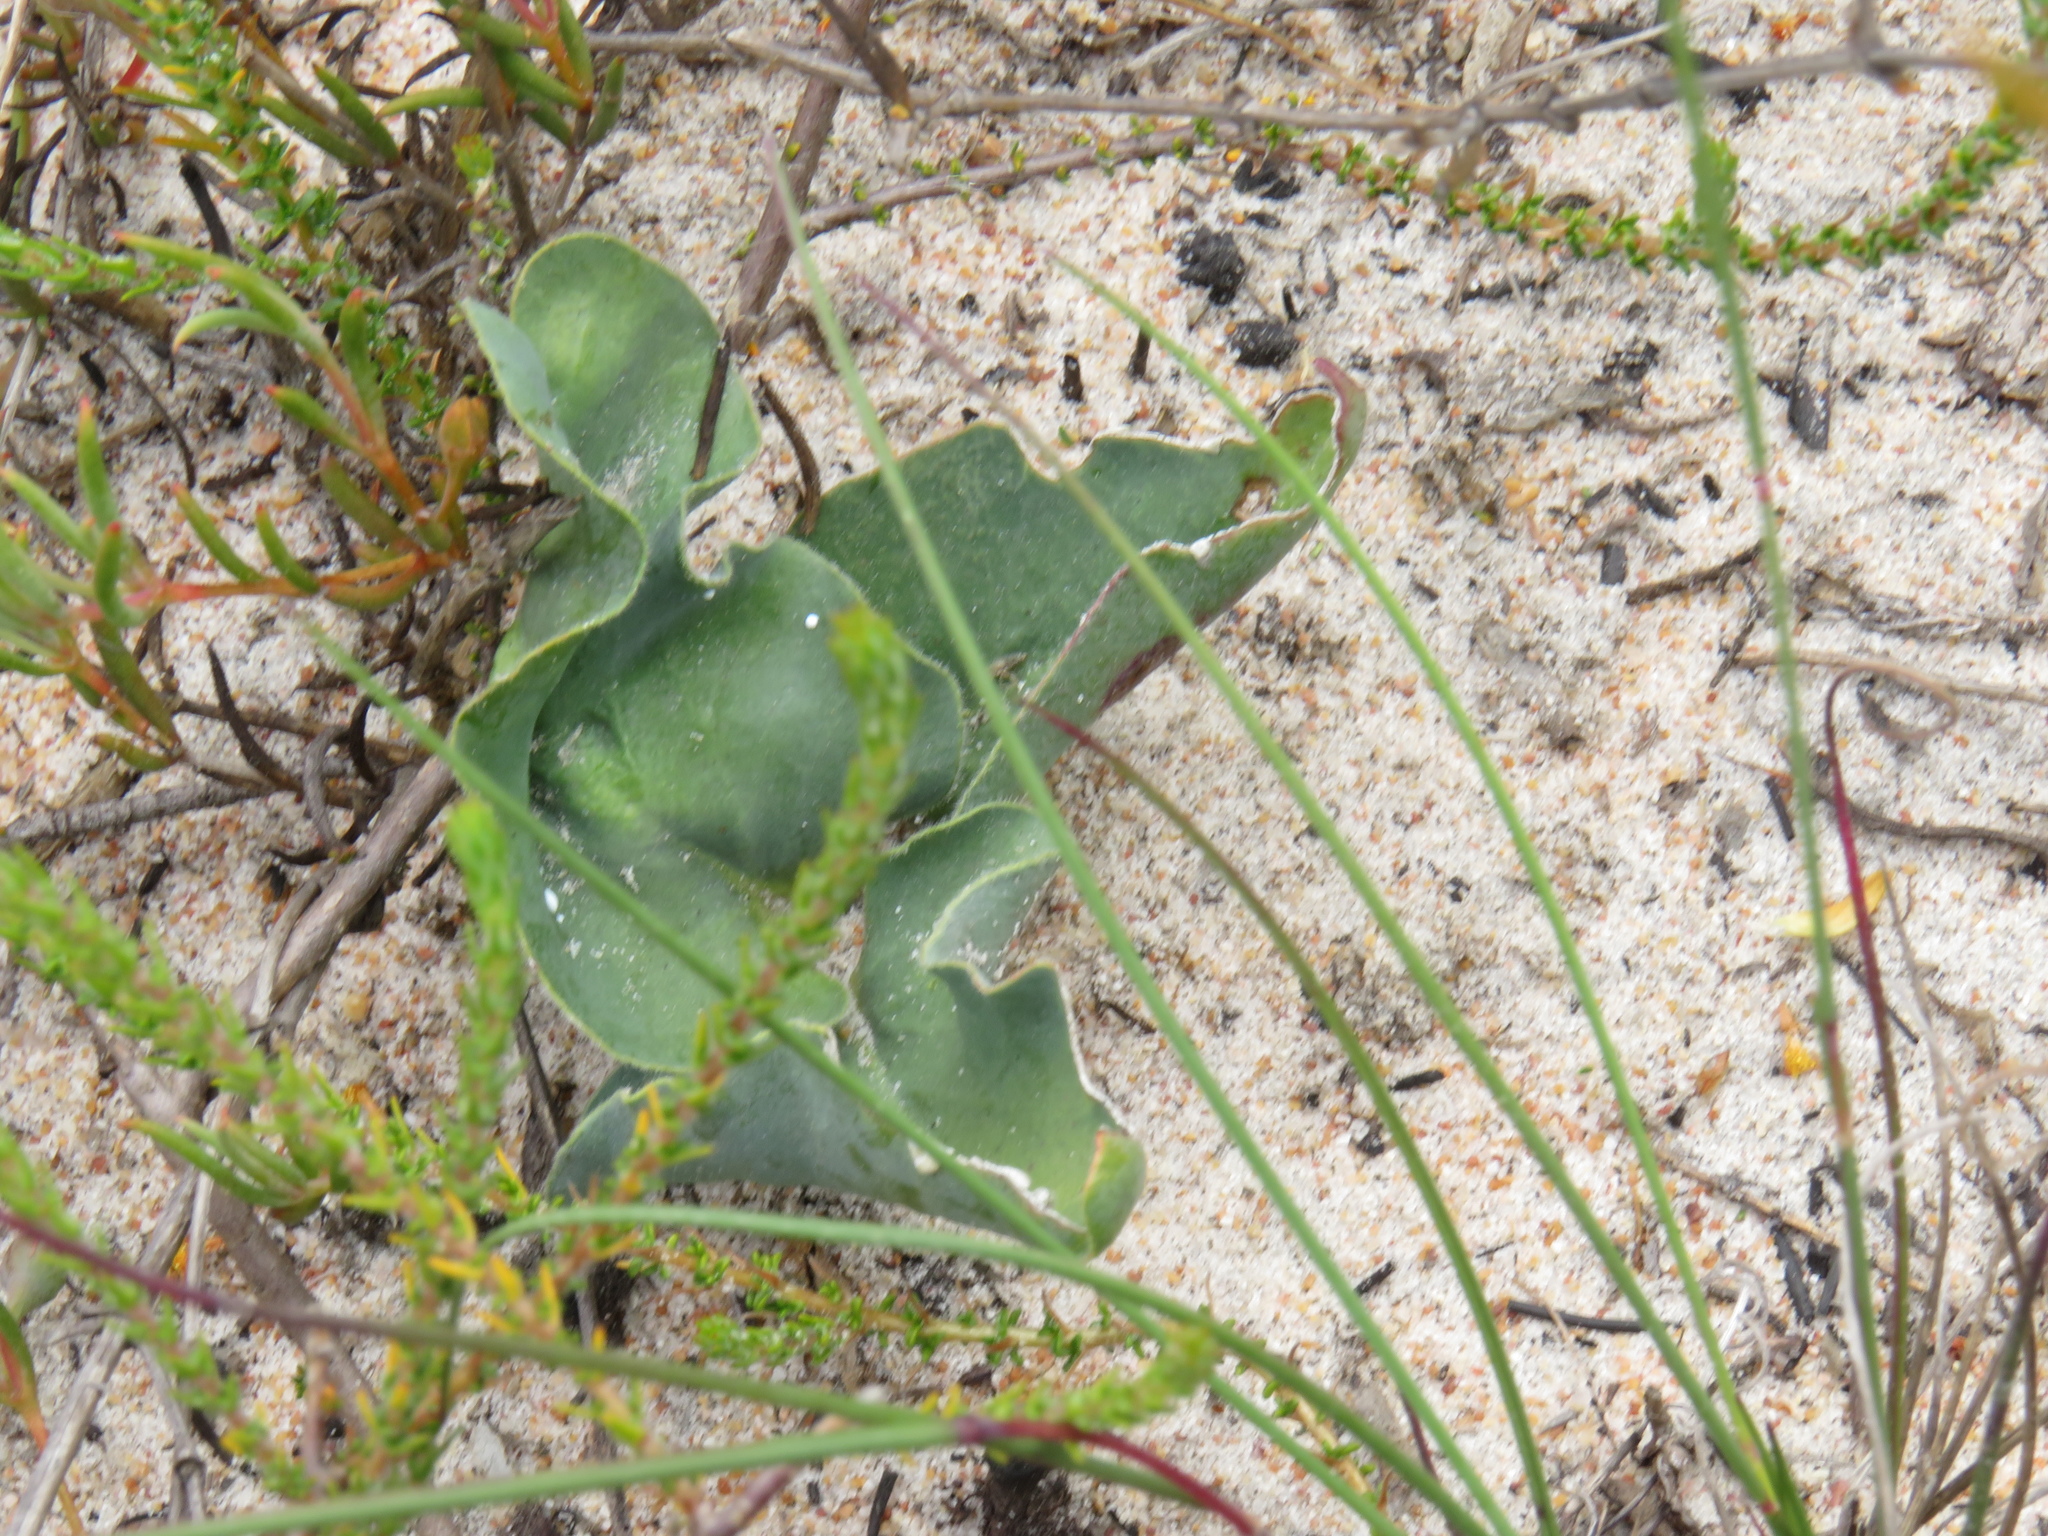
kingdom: Plantae
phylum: Tracheophyta
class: Magnoliopsida
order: Malpighiales
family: Euphorbiaceae
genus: Euphorbia
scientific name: Euphorbia tuberosa
